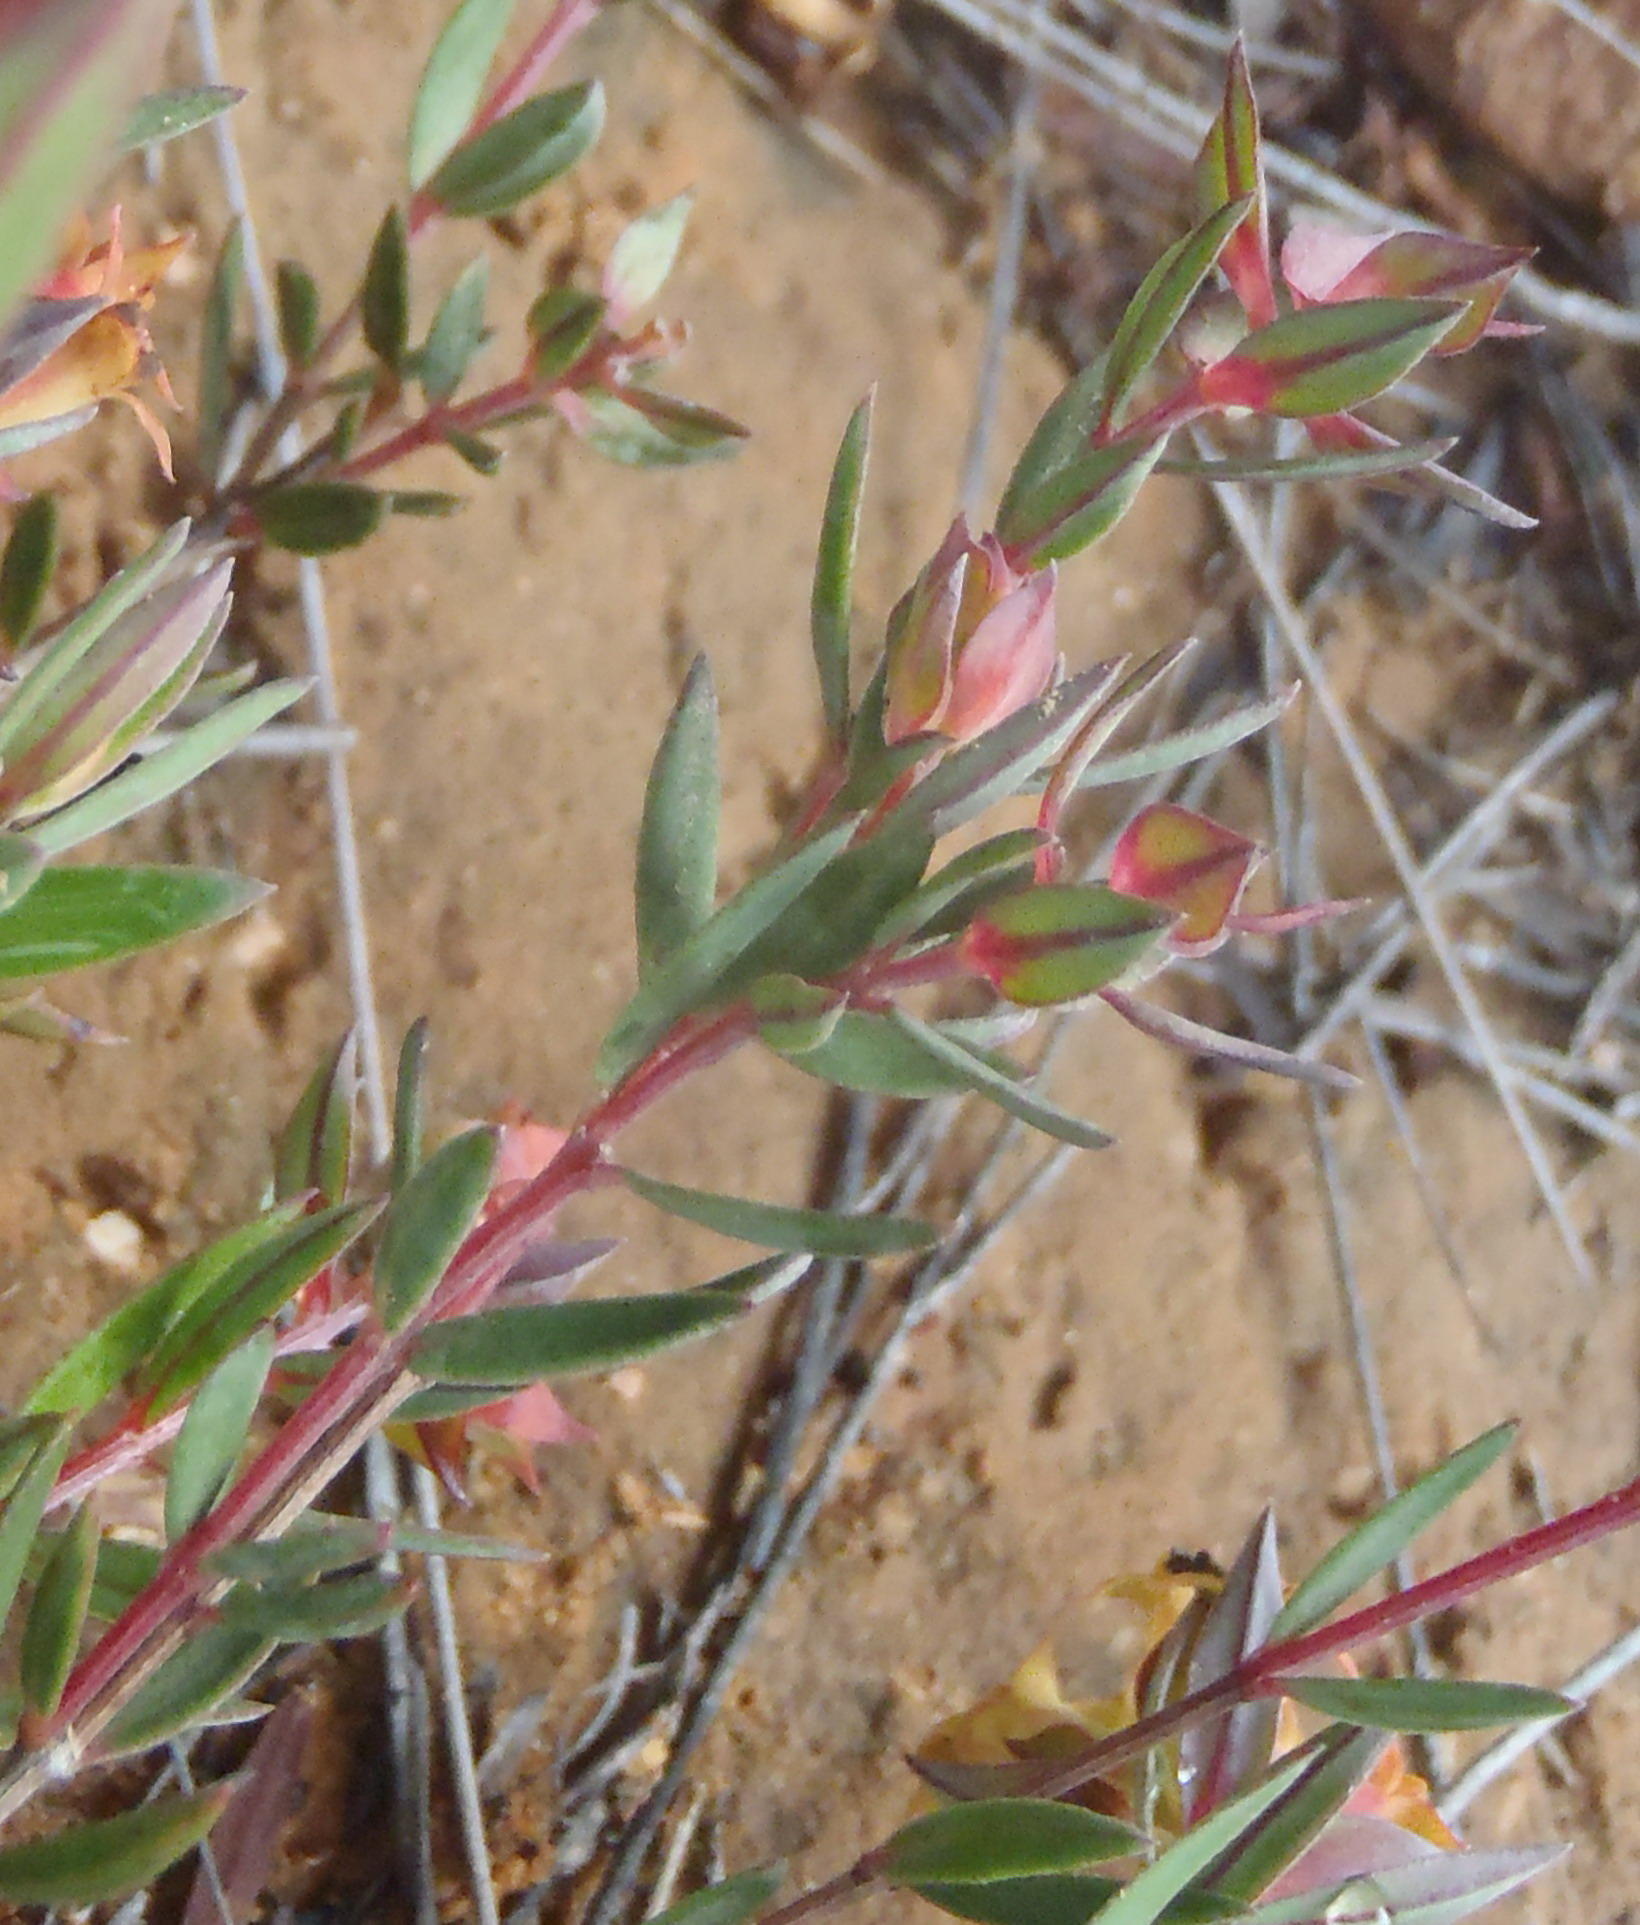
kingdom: Plantae
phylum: Tracheophyta
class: Magnoliopsida
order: Myrtales
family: Penaeaceae
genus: Penaea
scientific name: Penaea acutifolia
